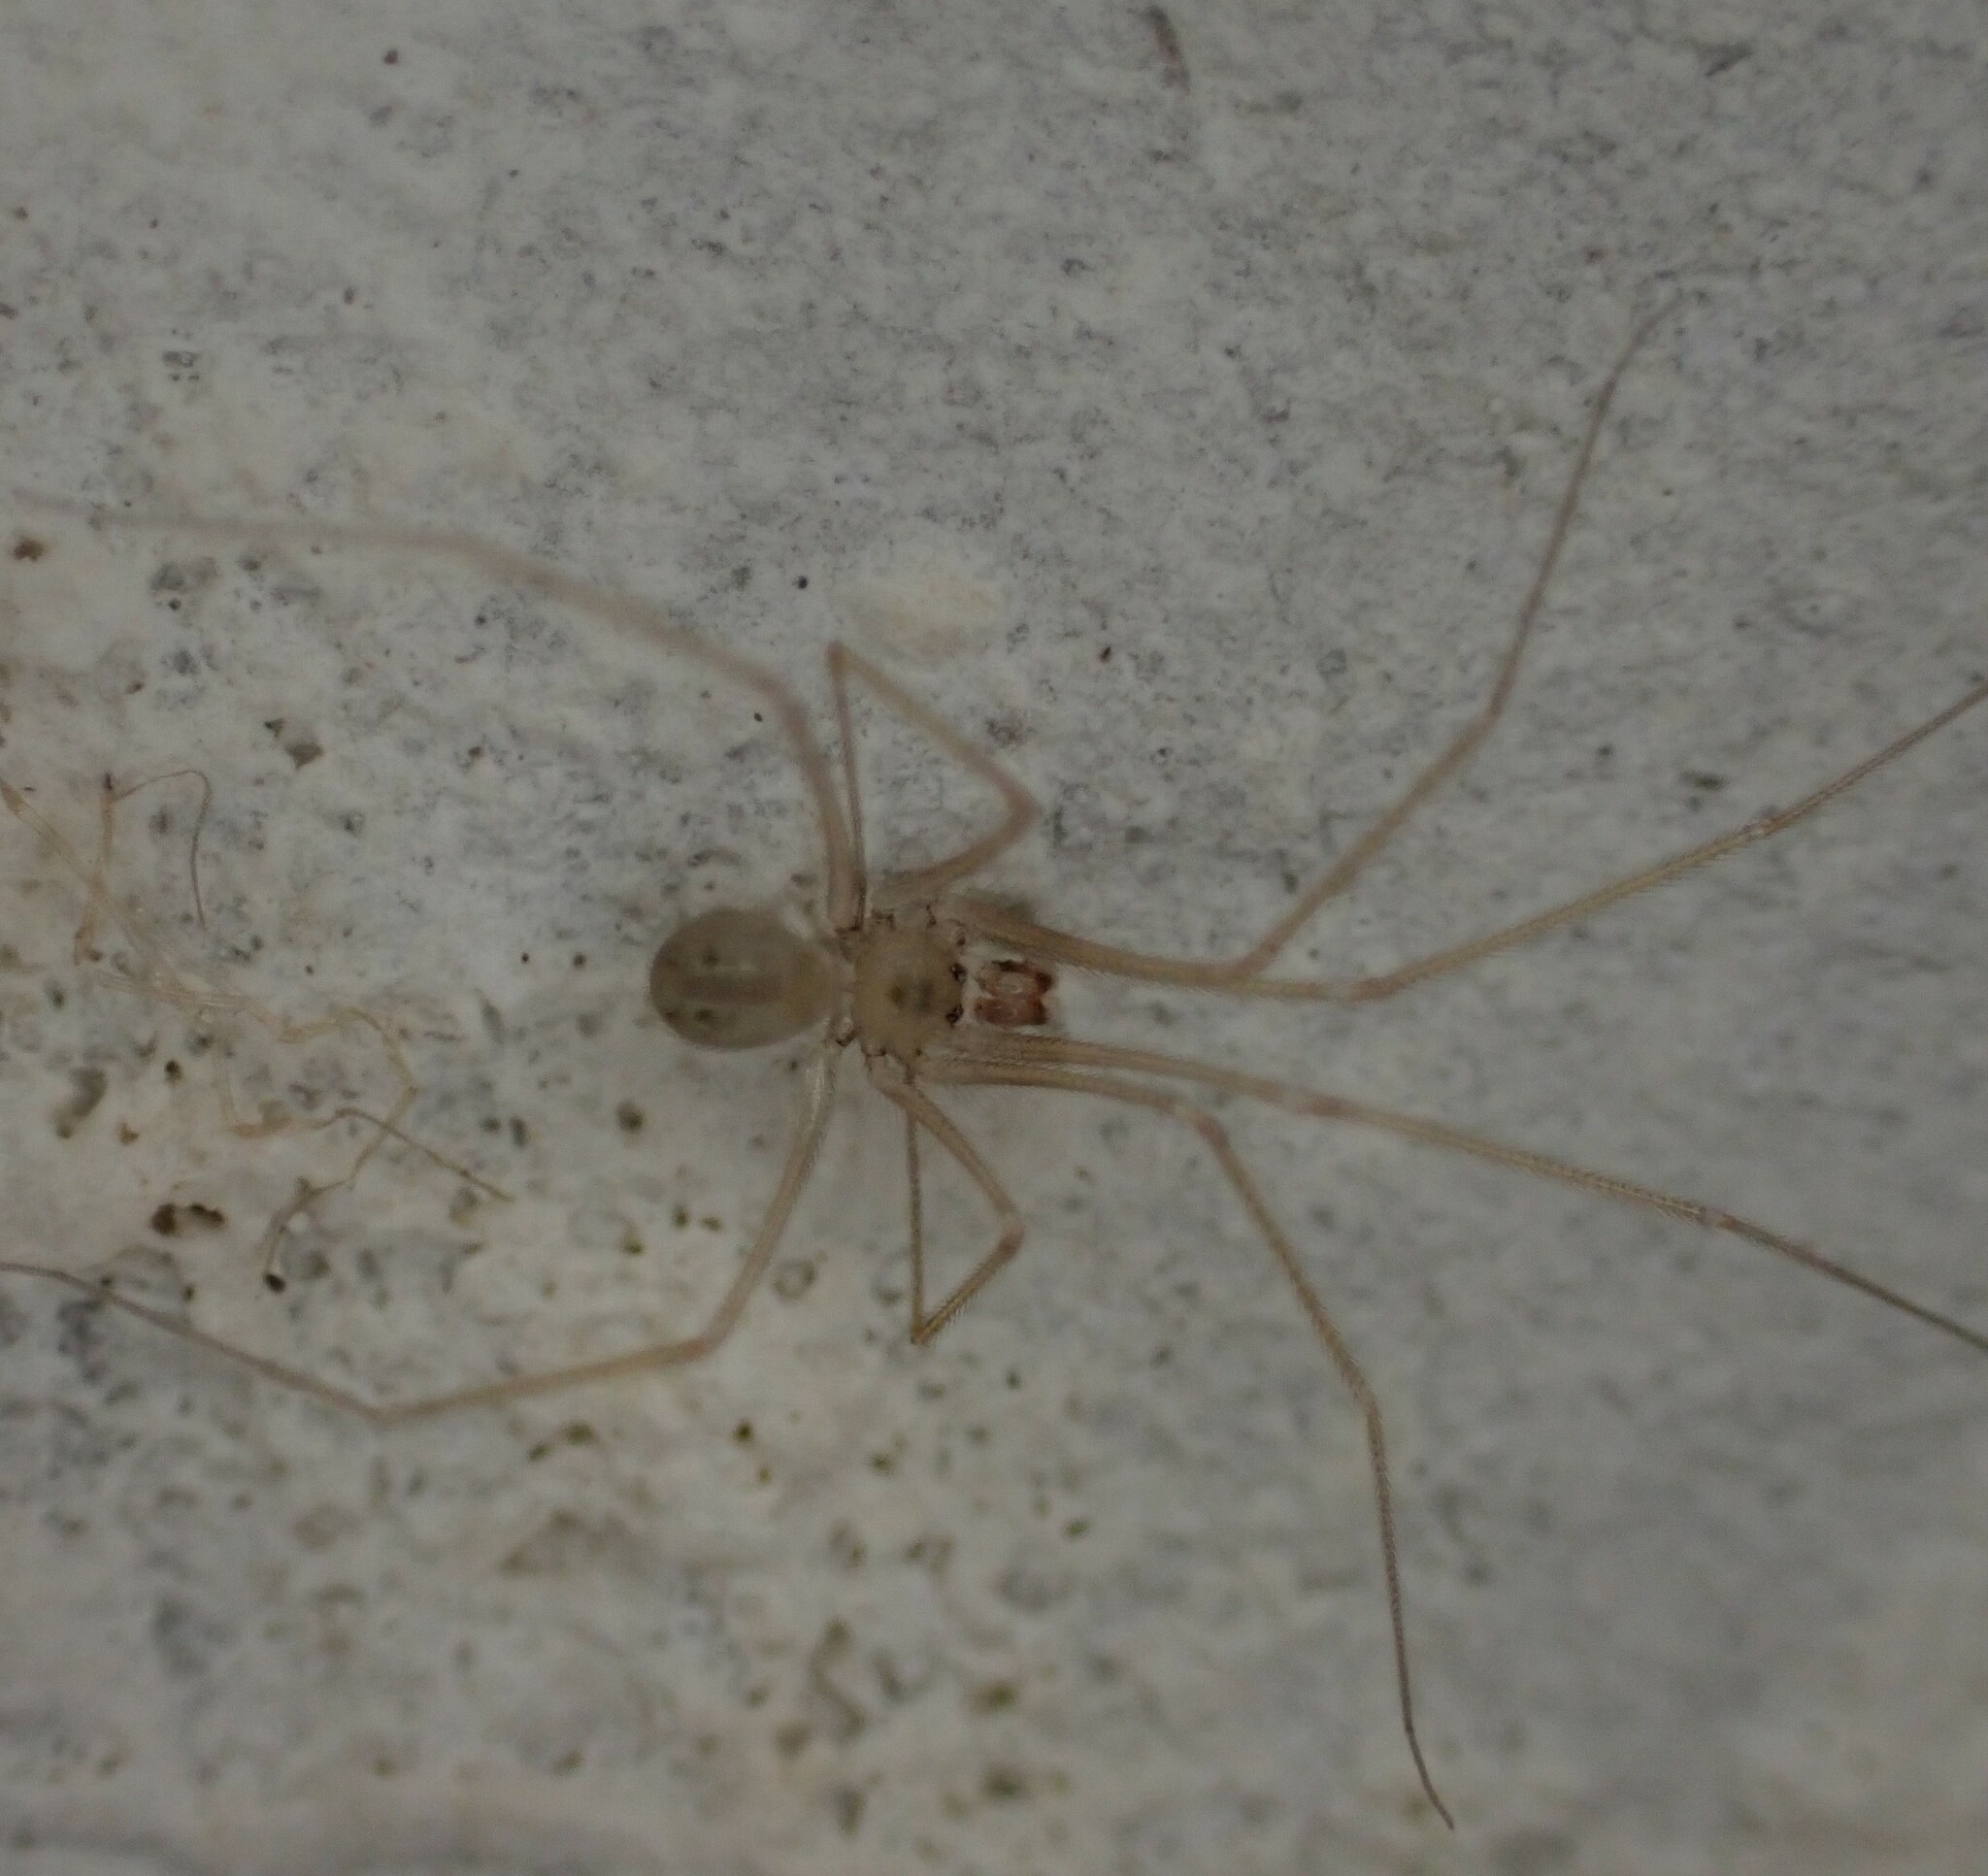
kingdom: Animalia
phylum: Arthropoda
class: Arachnida
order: Araneae
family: Pholcidae
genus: Spermophora
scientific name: Spermophora senoculata
